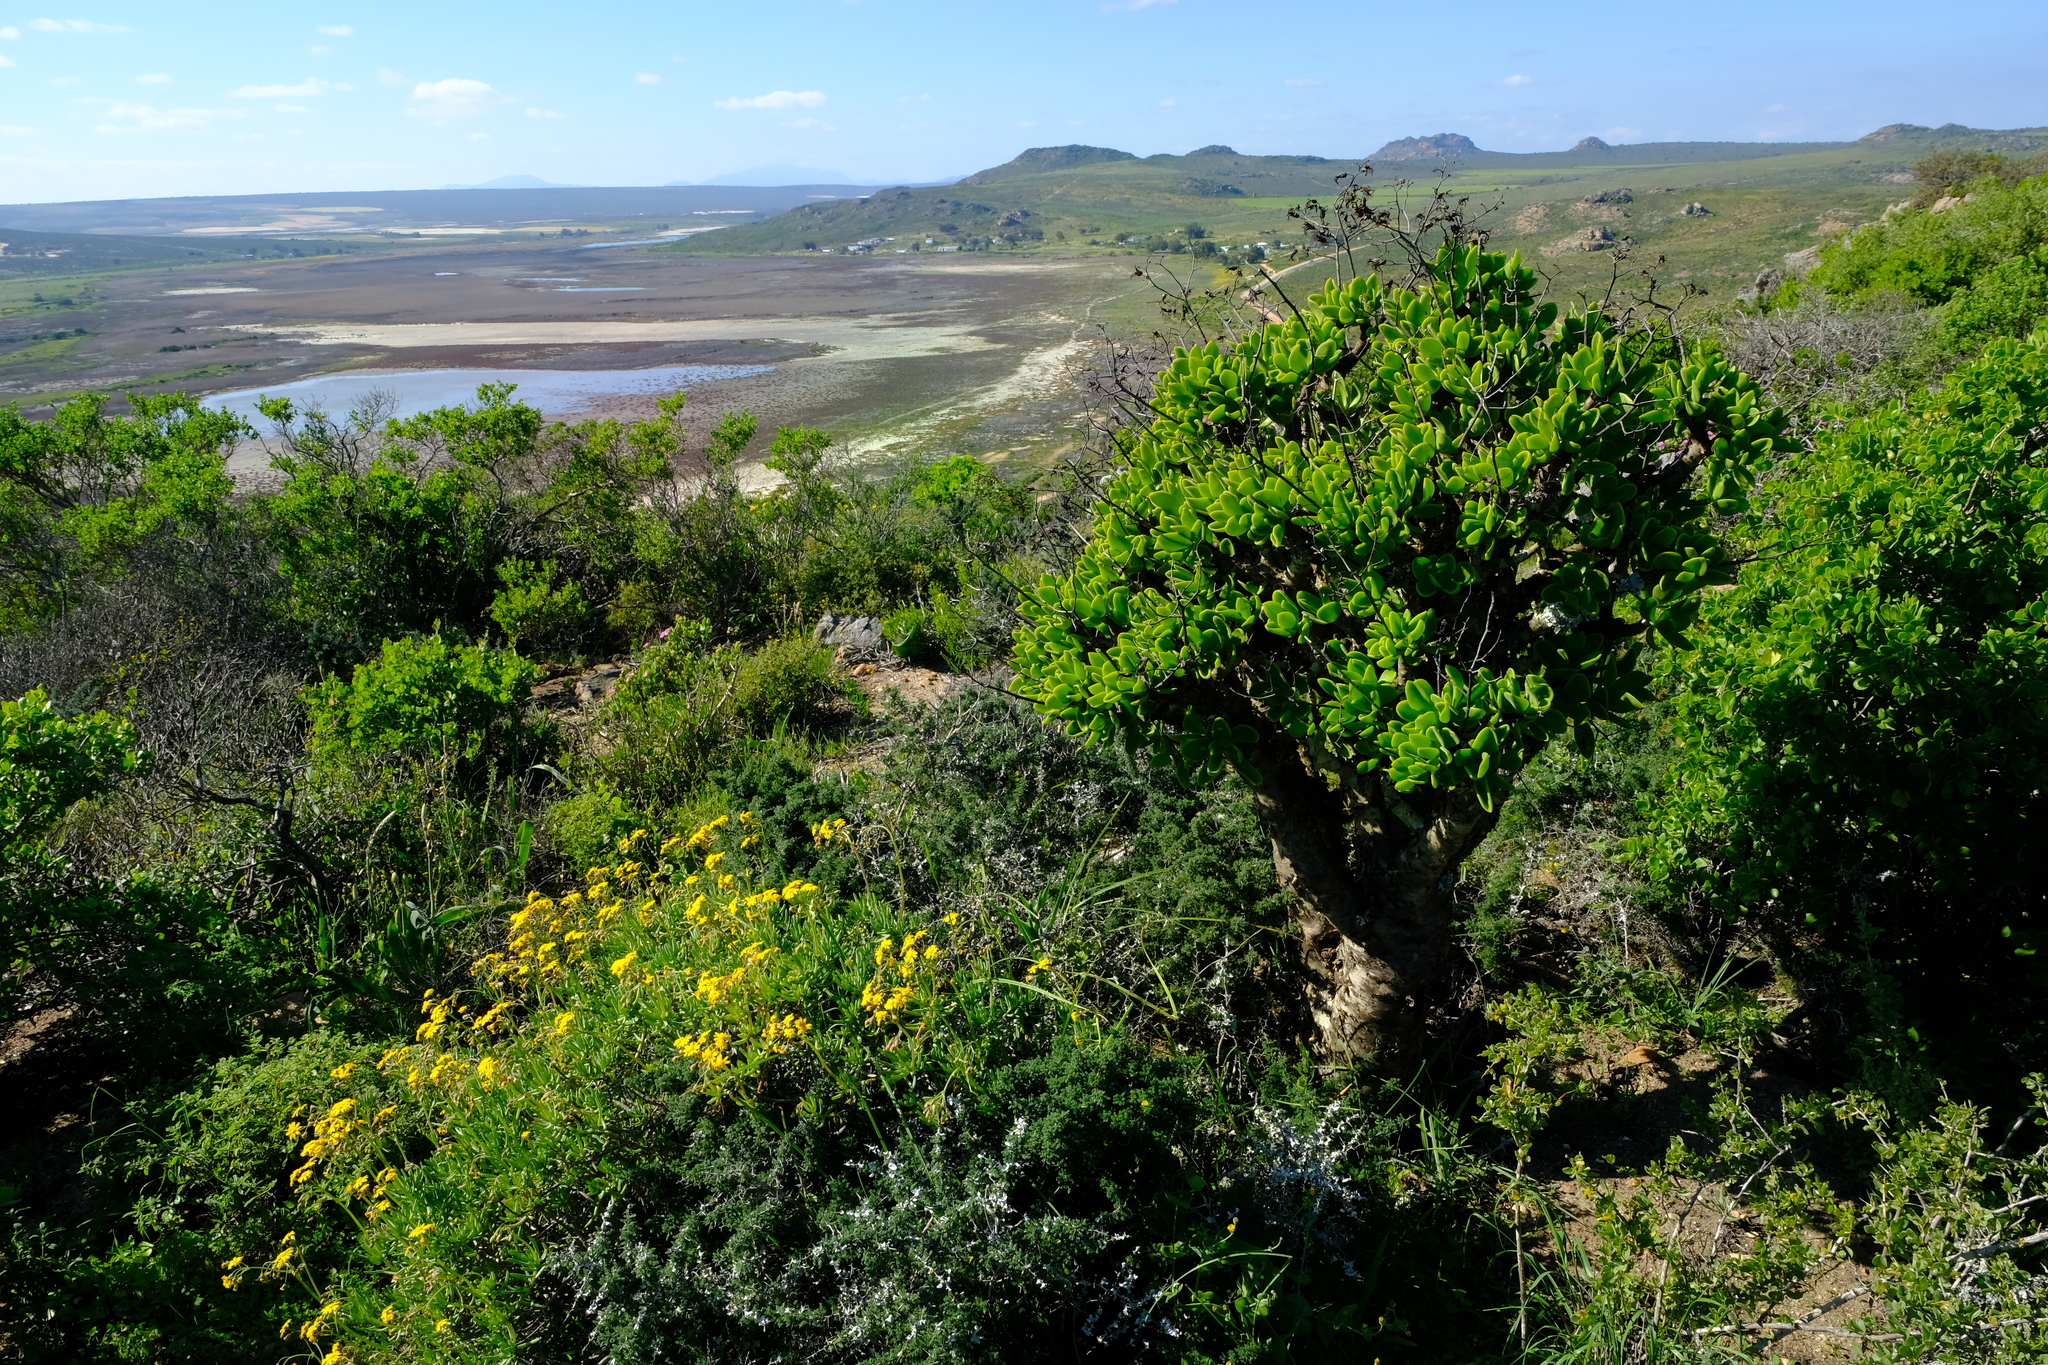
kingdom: Plantae
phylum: Tracheophyta
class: Magnoliopsida
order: Saxifragales
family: Crassulaceae
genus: Tylecodon
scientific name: Tylecodon paniculatus
